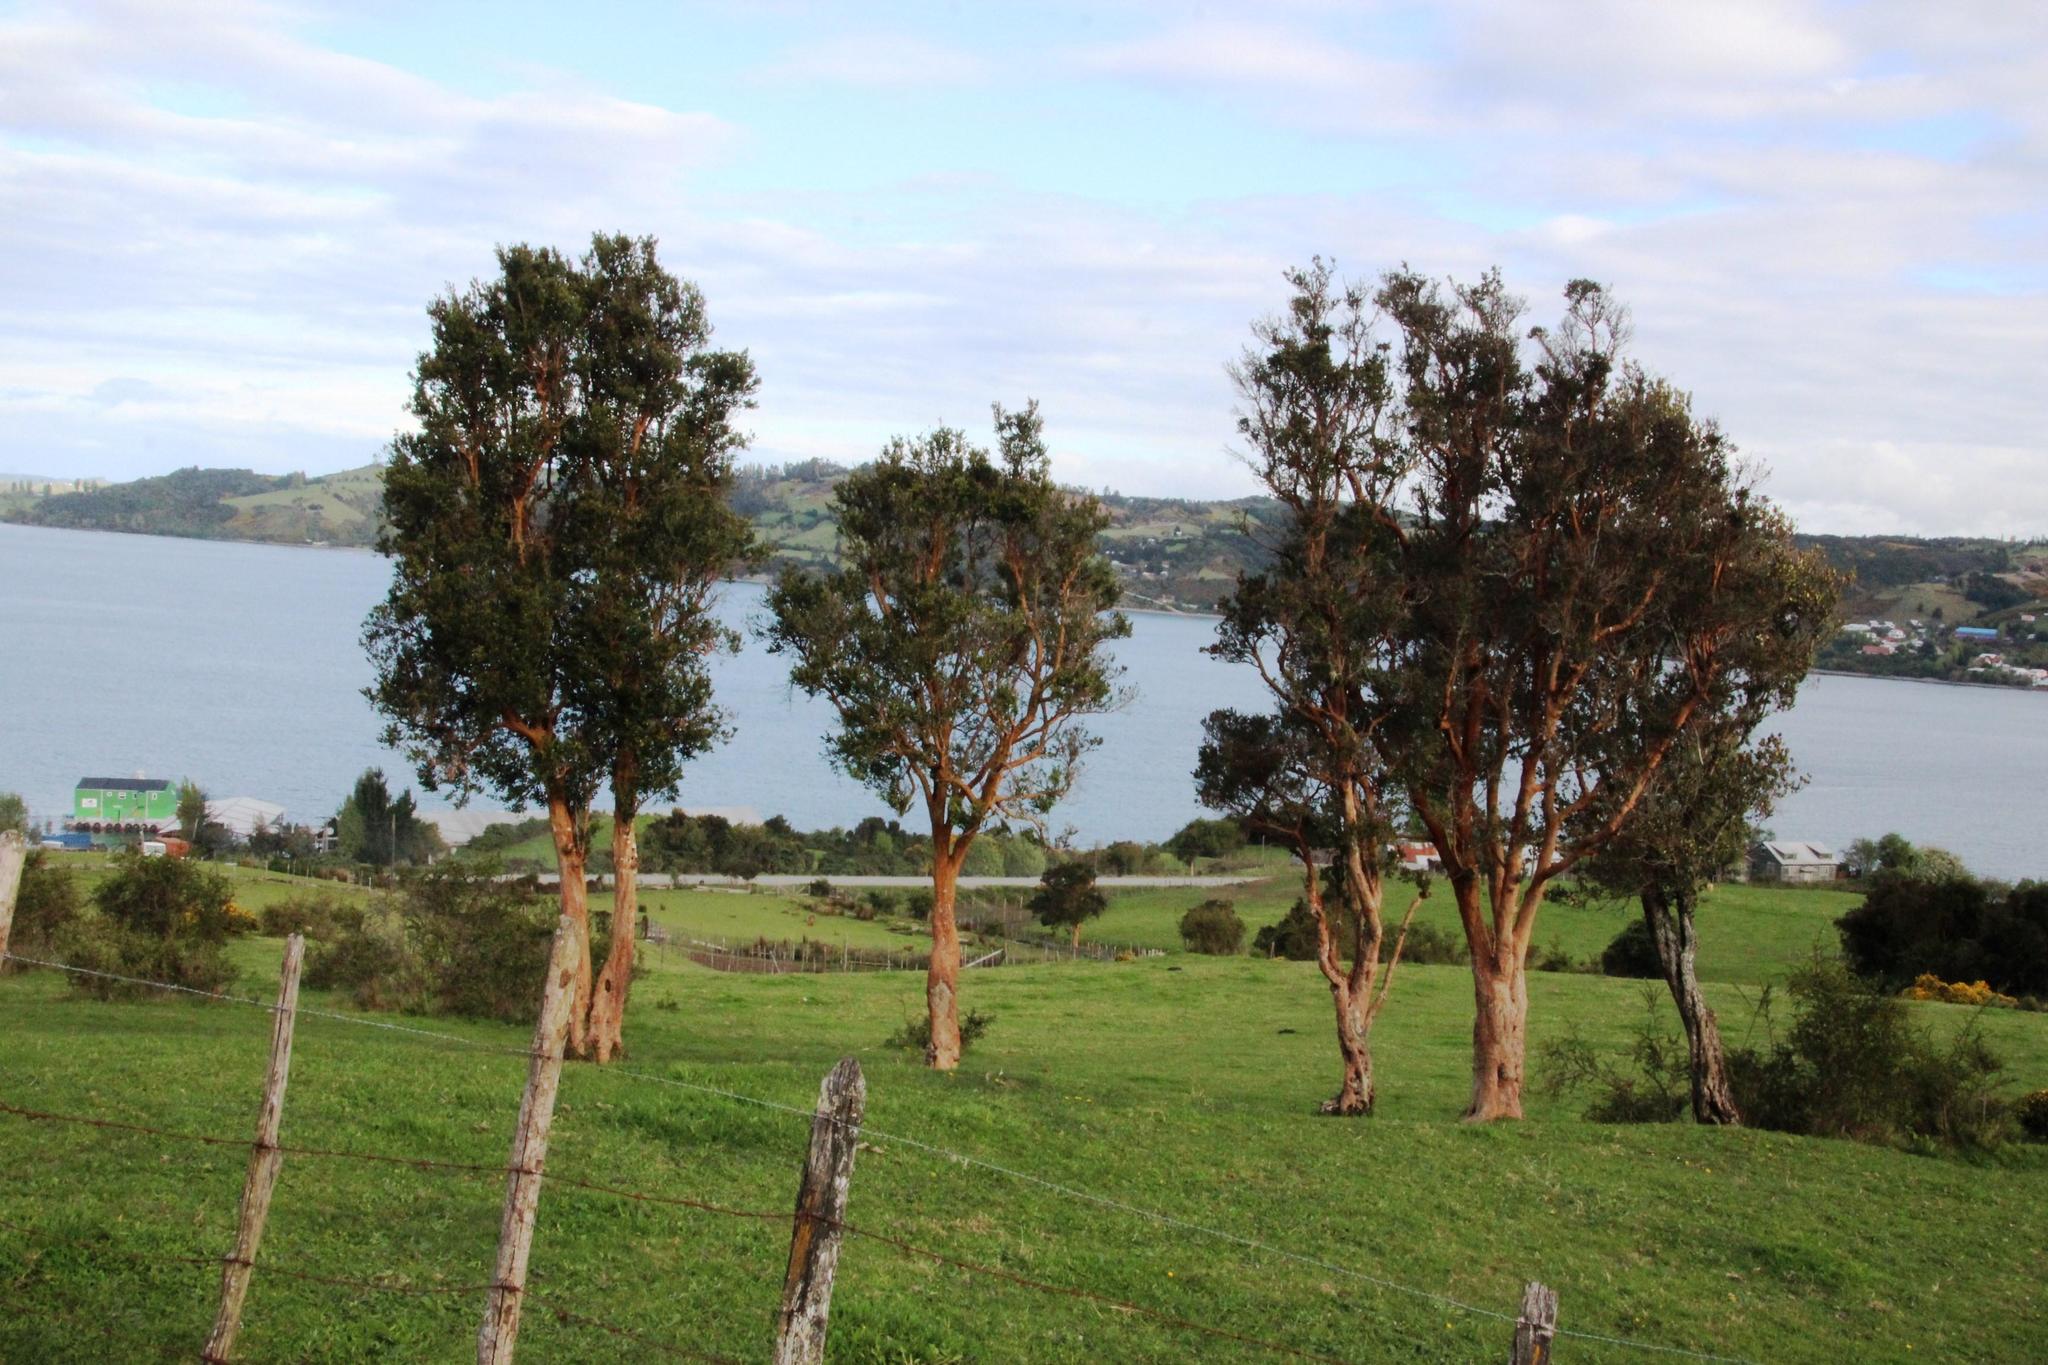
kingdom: Plantae
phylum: Tracheophyta
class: Magnoliopsida
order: Myrtales
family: Myrtaceae
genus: Luma
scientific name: Luma apiculata
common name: Chilean myrtle
